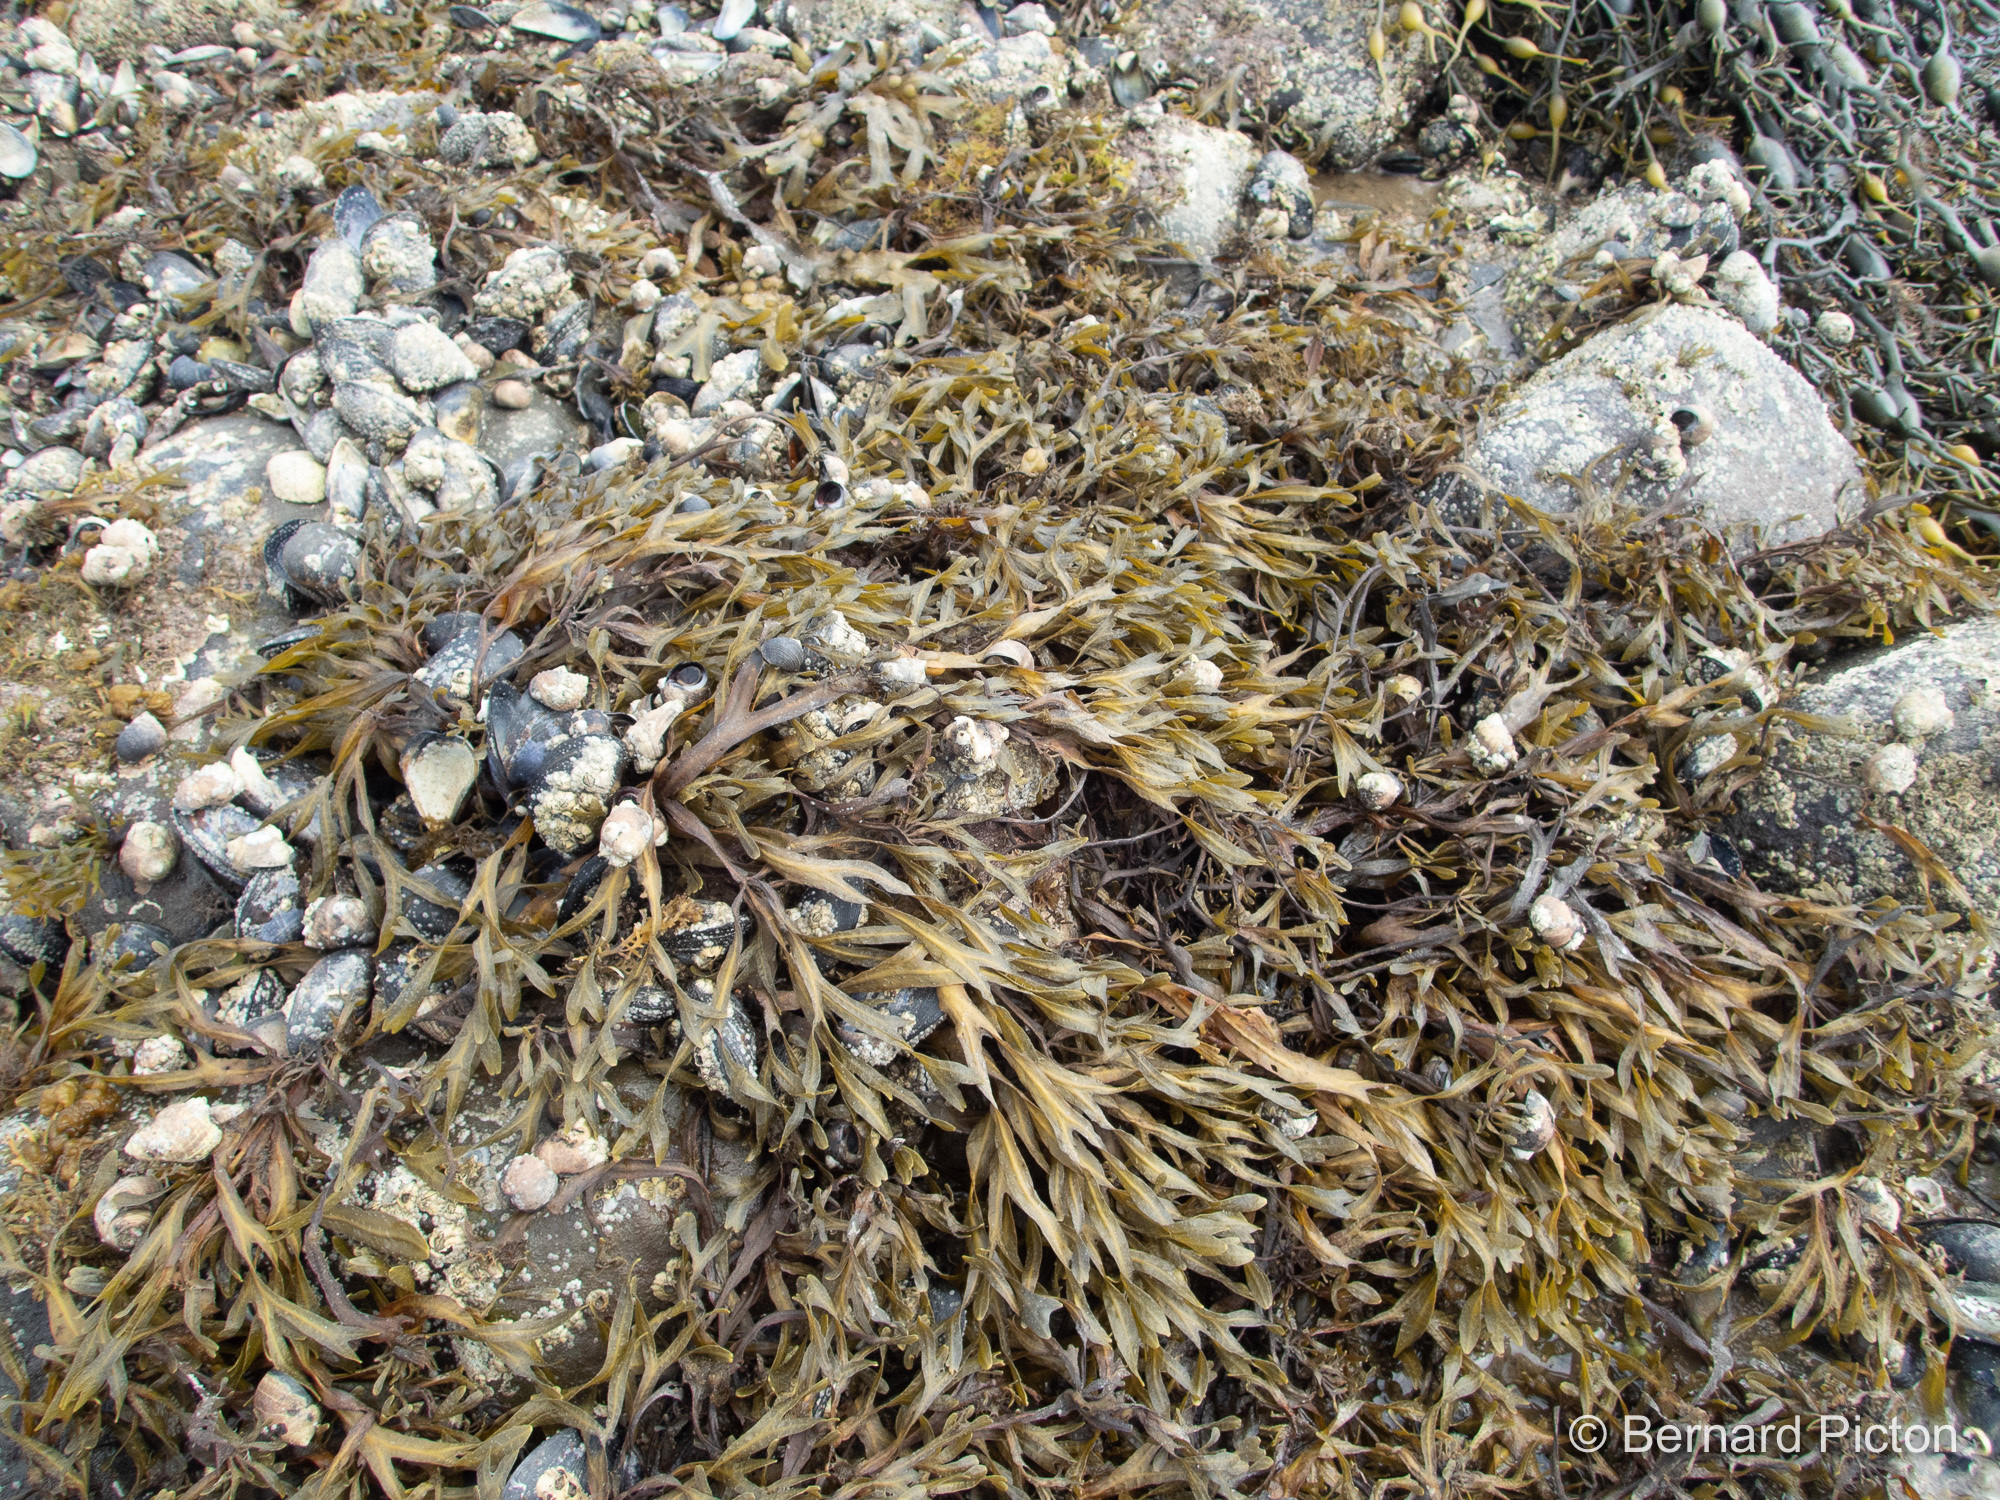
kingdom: Chromista
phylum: Ochrophyta
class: Phaeophyceae
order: Fucales
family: Fucaceae
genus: Fucus
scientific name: Fucus vesiculosus
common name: Bladder wrack
